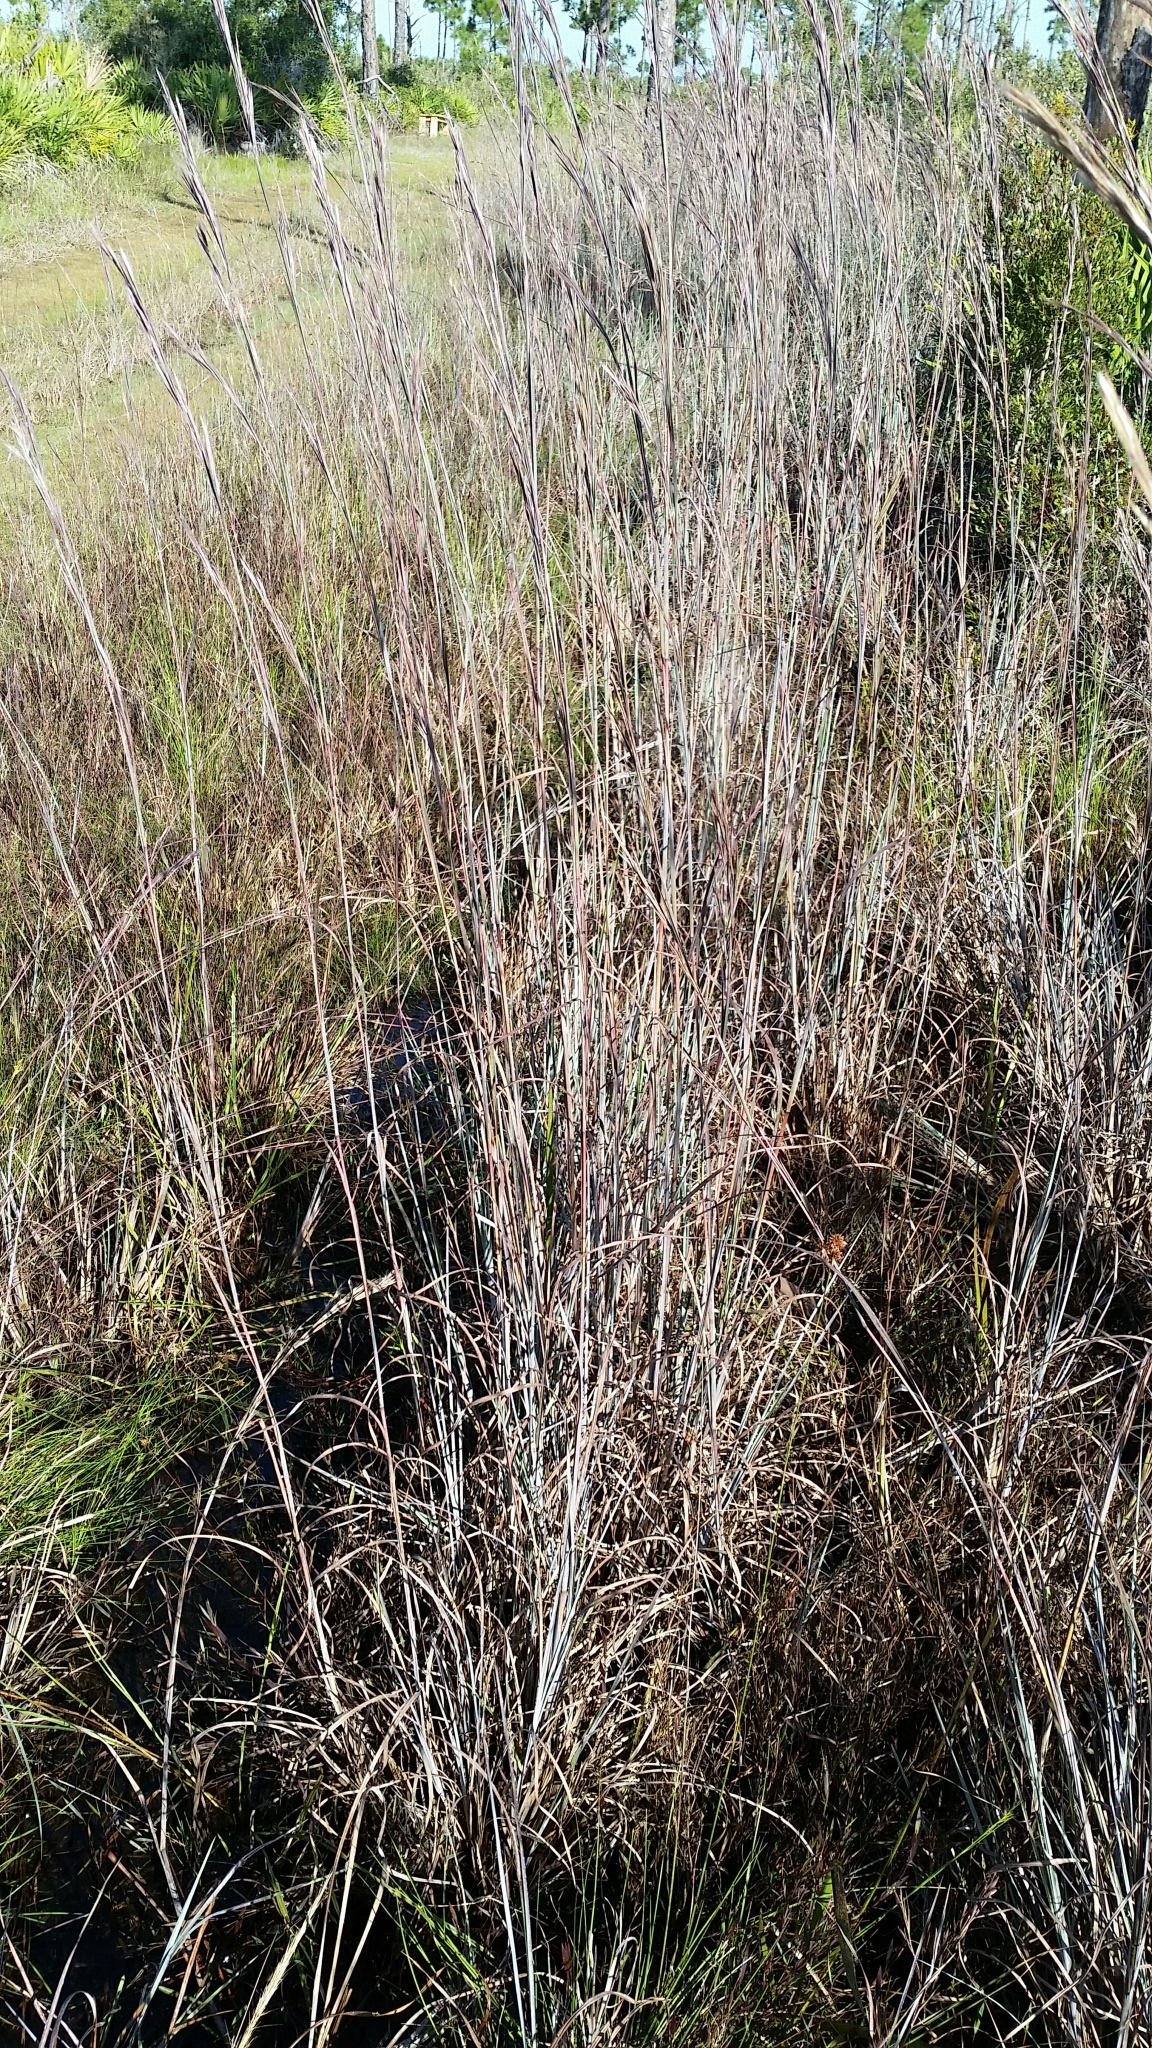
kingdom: Plantae
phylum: Tracheophyta
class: Liliopsida
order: Poales
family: Poaceae
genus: Andropogon
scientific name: Andropogon cretaceus
